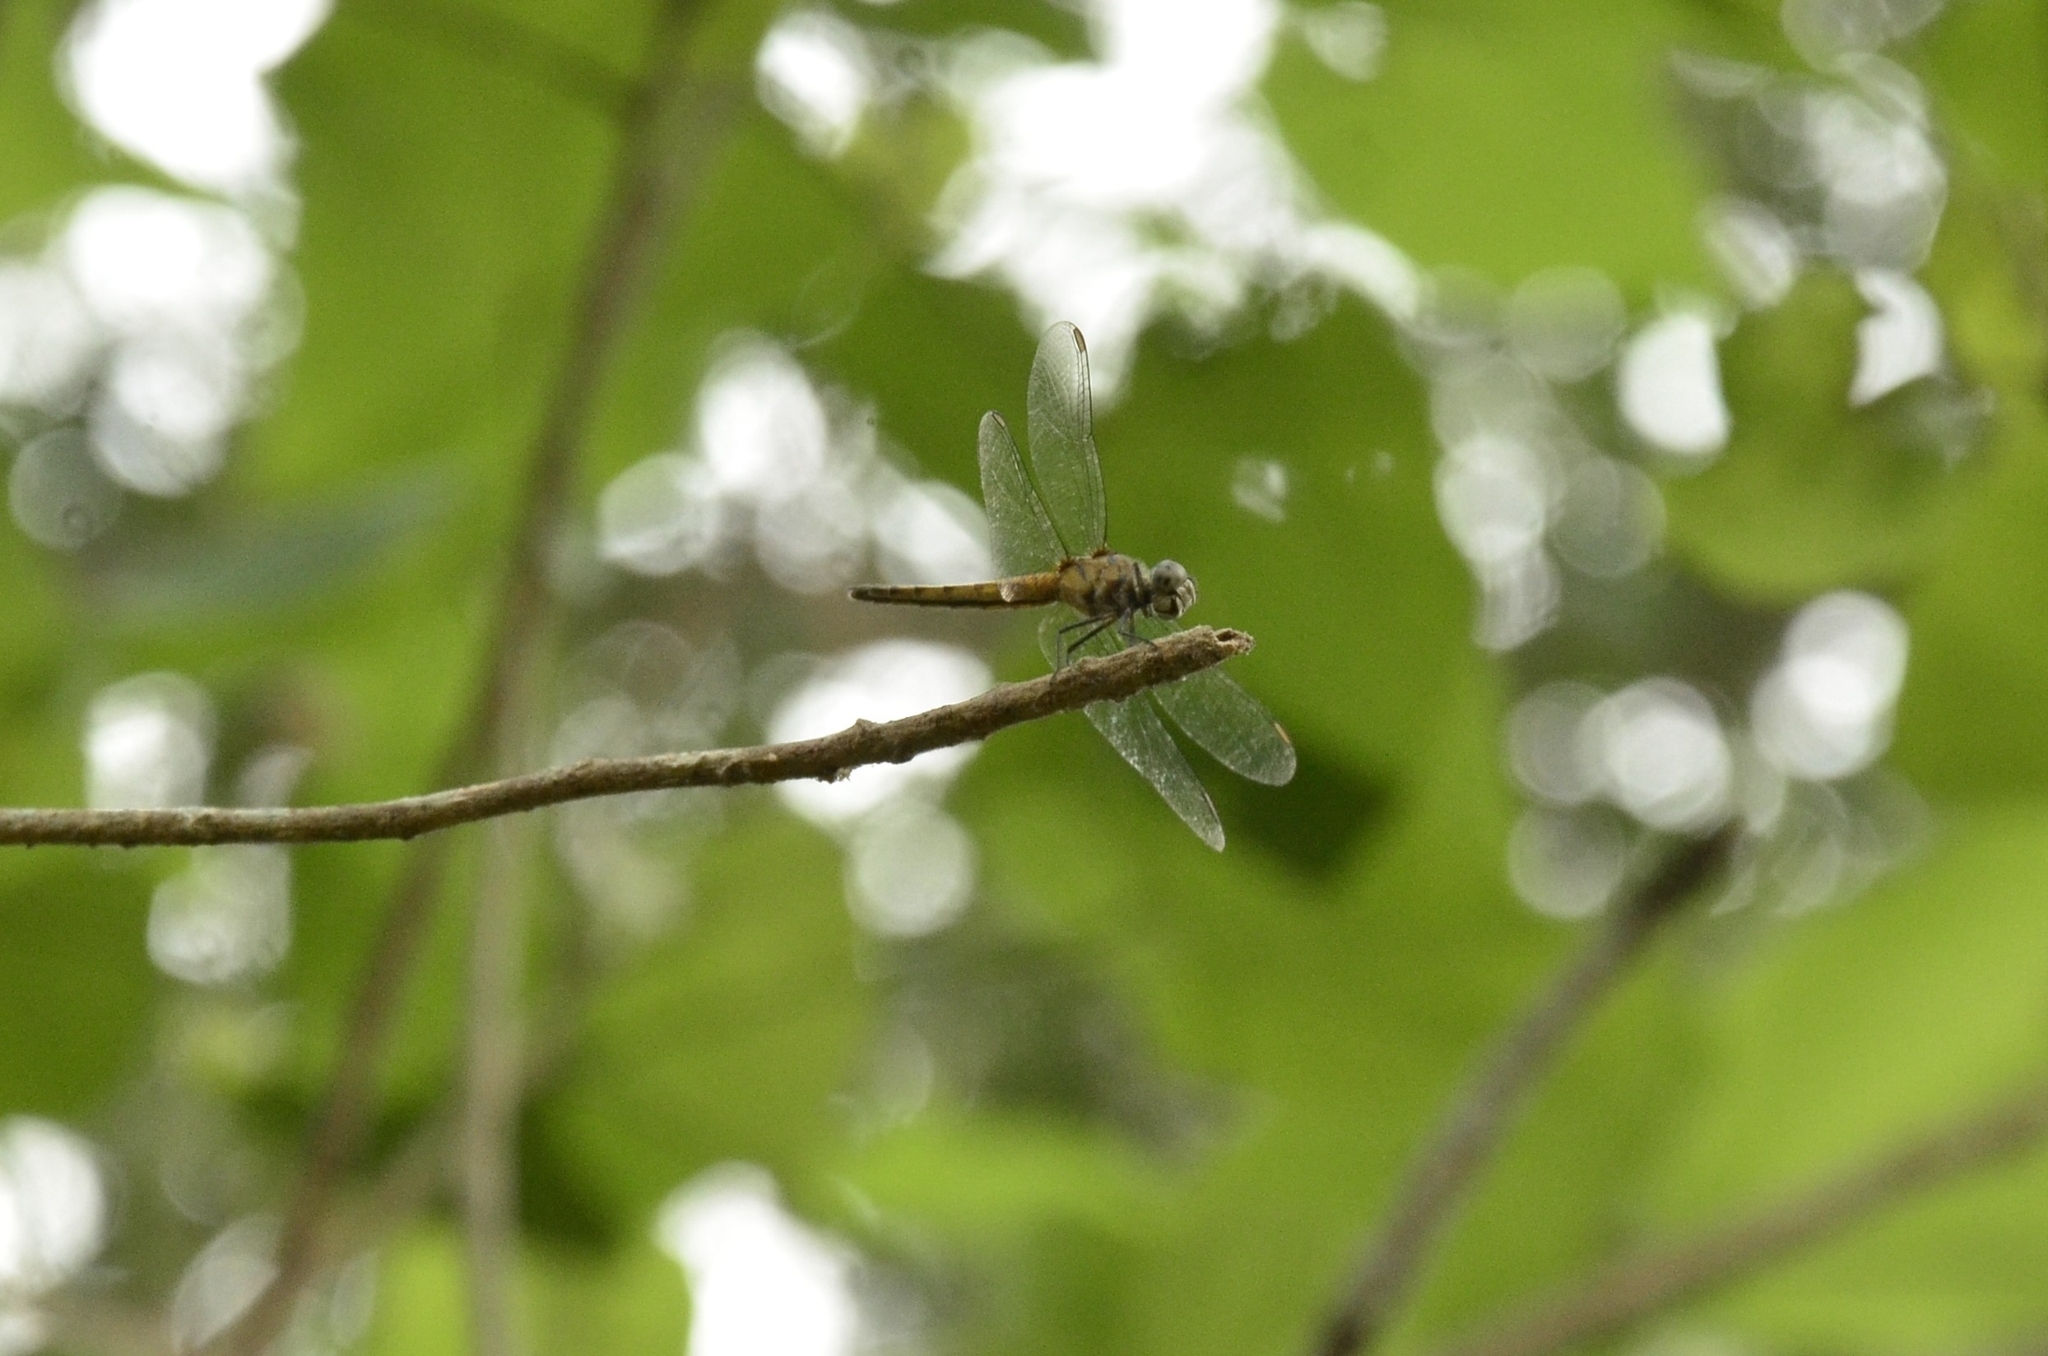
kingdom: Animalia
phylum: Arthropoda
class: Insecta
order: Odonata
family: Libellulidae
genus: Brachydiplax
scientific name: Brachydiplax chalybea
